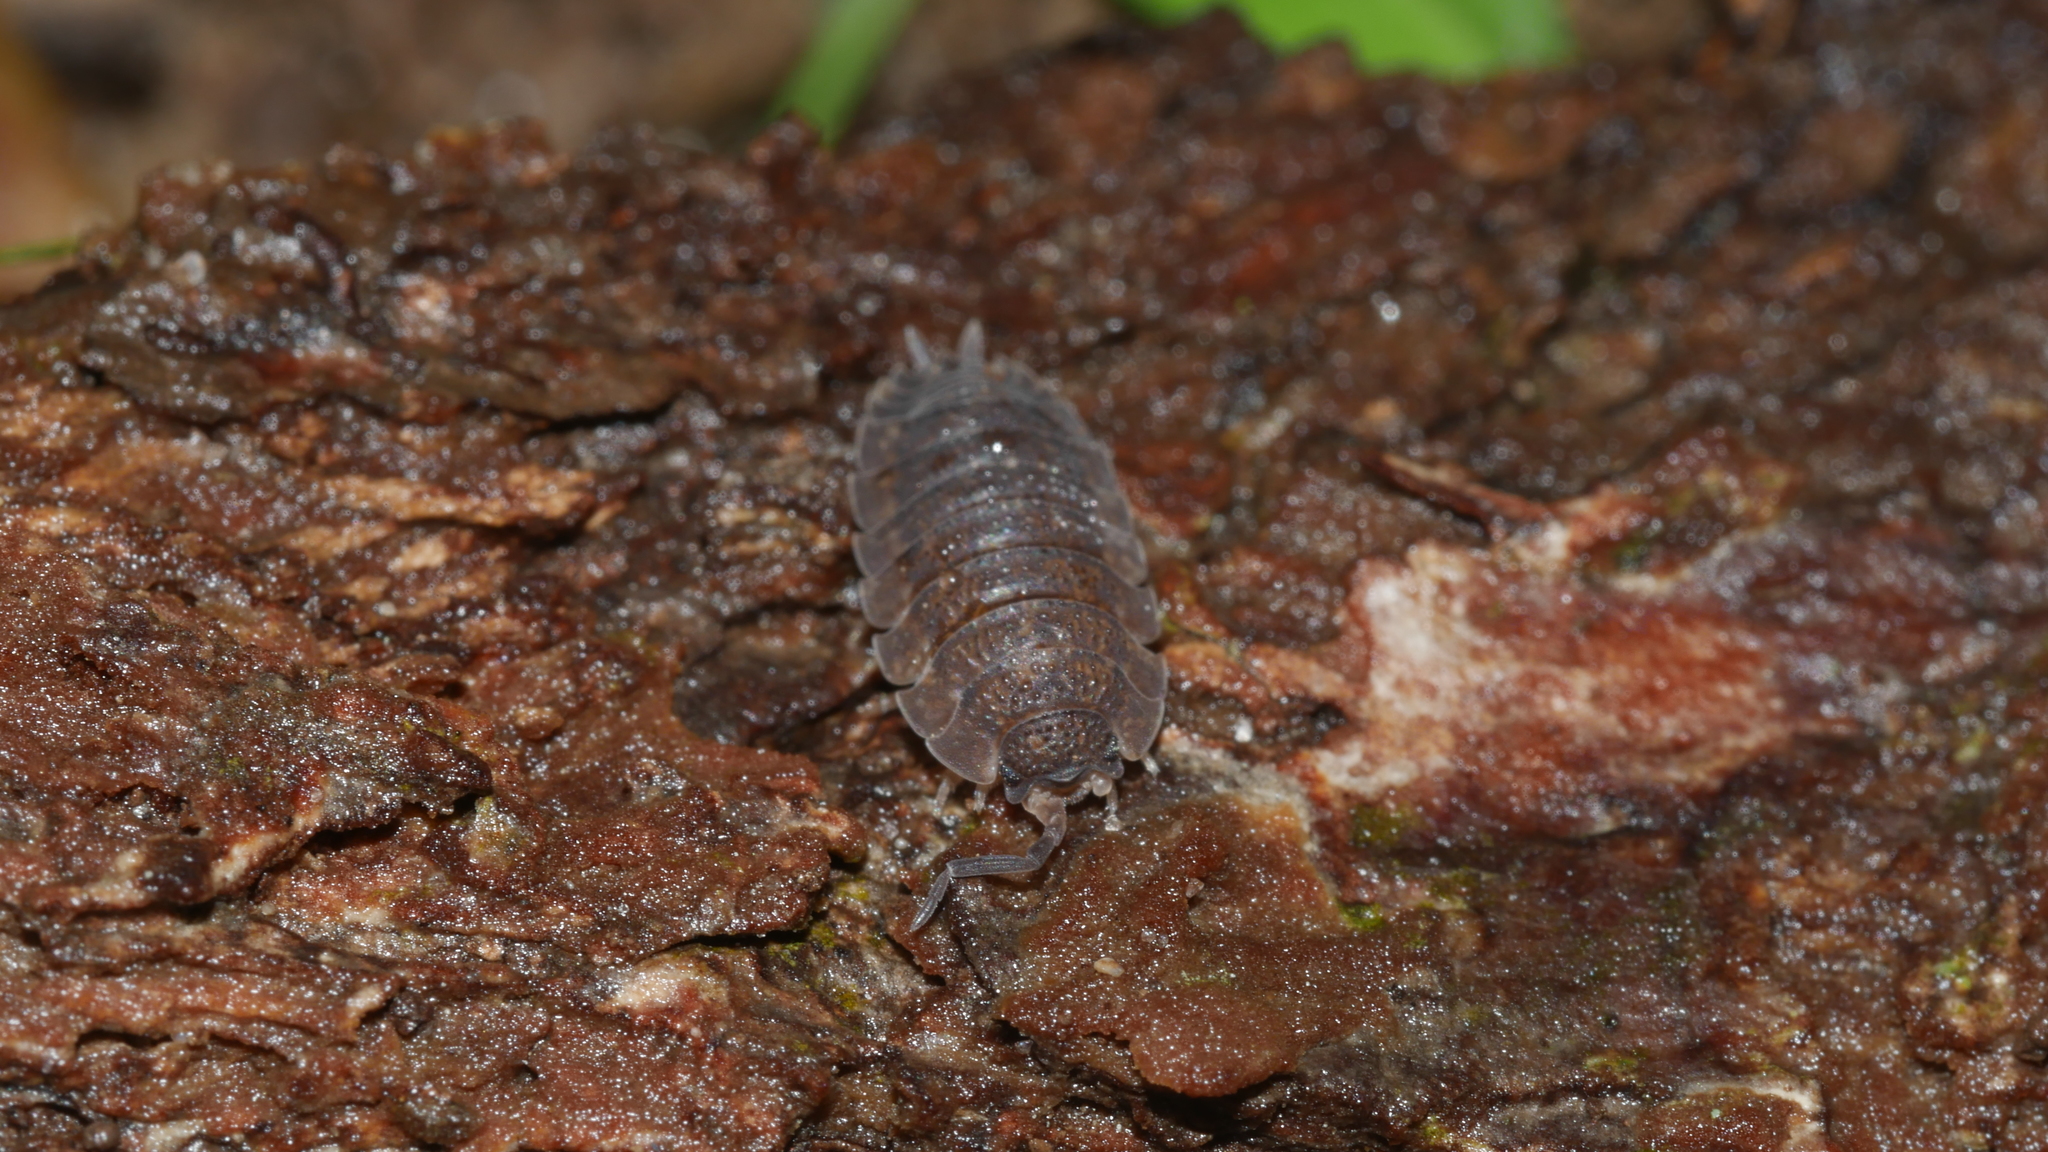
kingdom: Animalia
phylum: Arthropoda
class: Malacostraca
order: Isopoda
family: Porcellionidae
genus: Porcellio
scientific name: Porcellio scaber
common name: Common rough woodlouse
